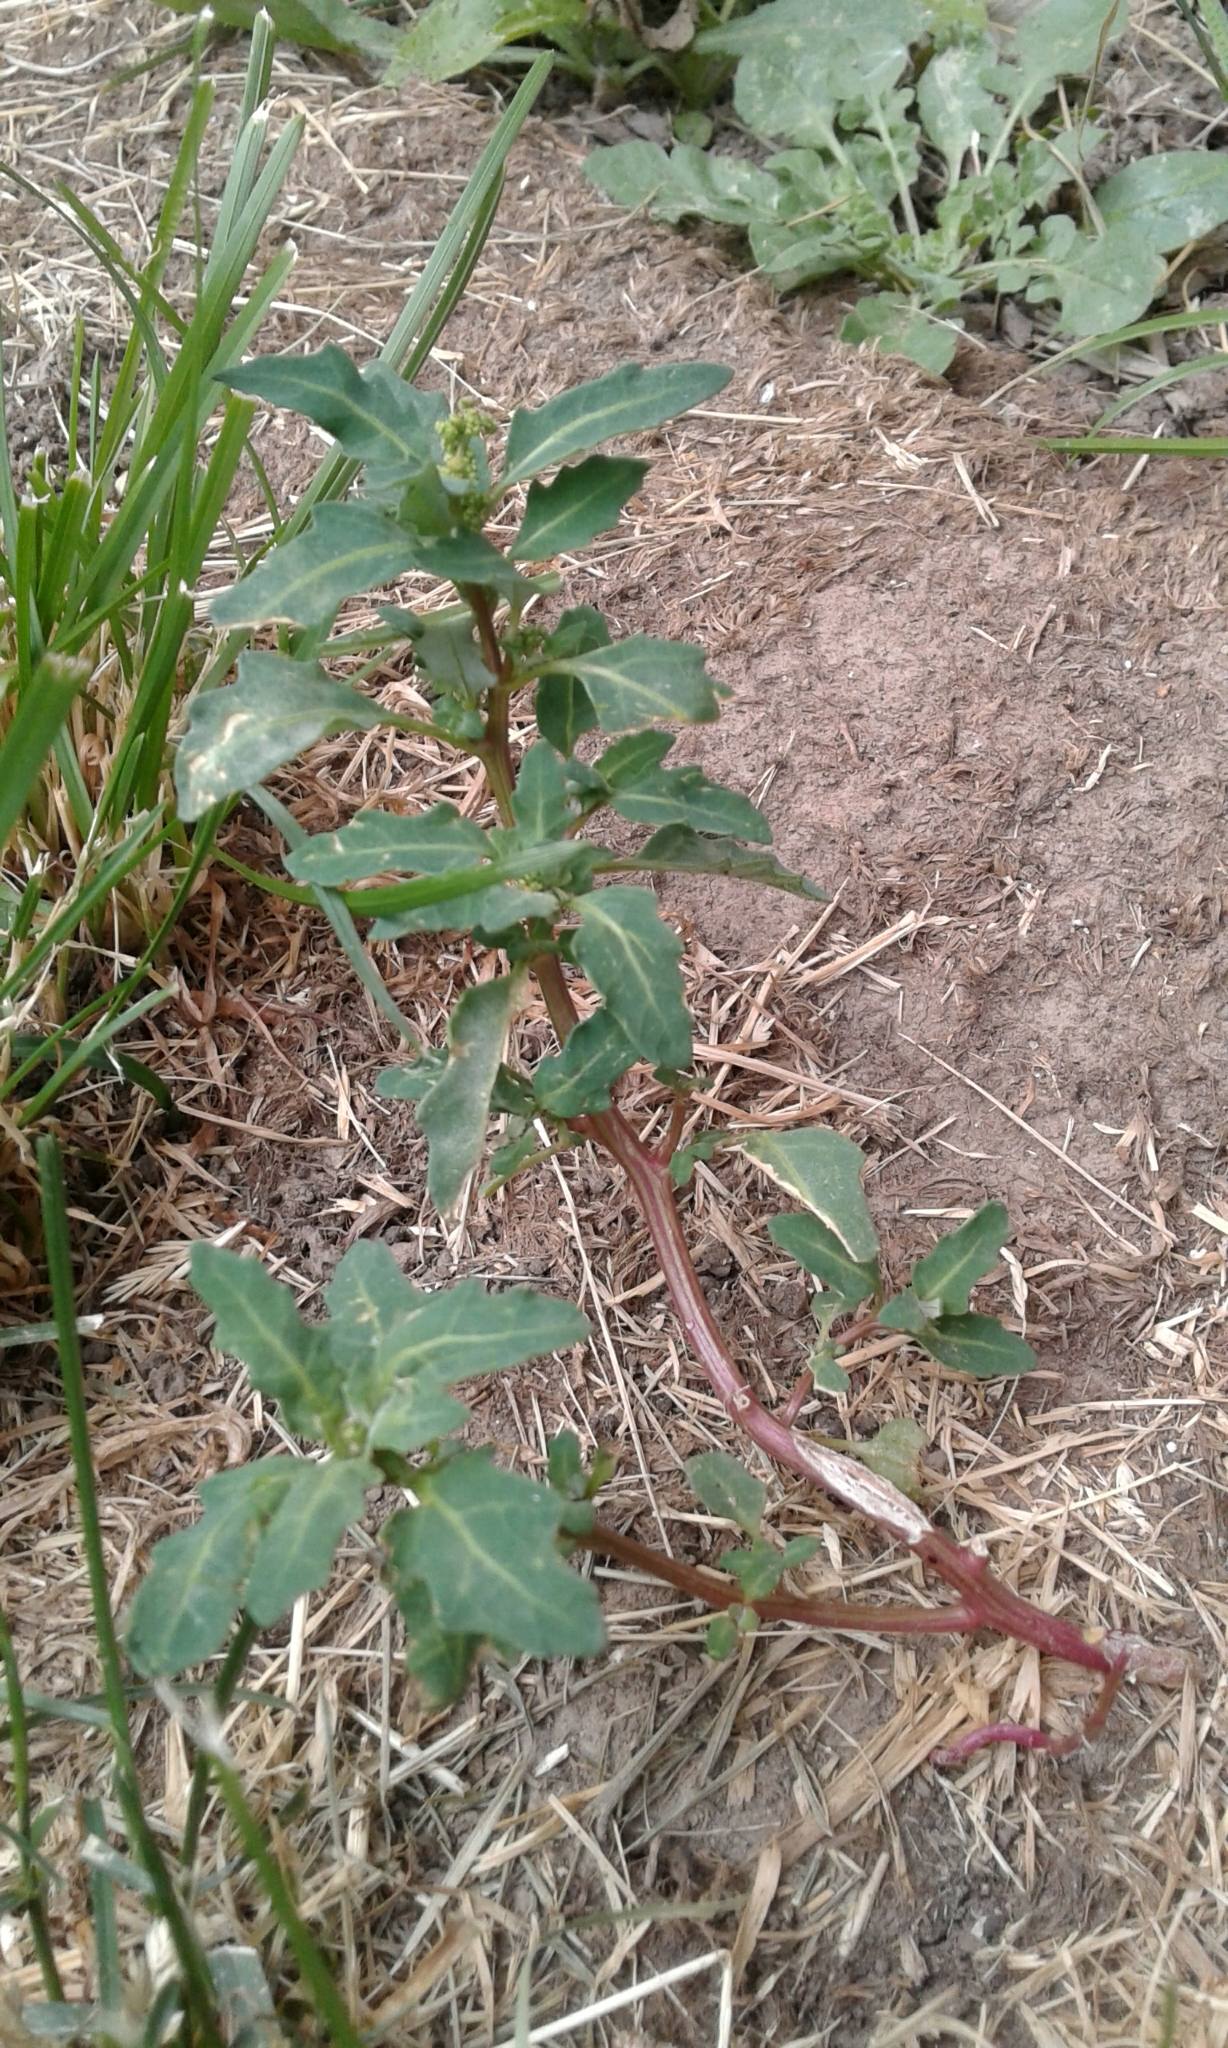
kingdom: Plantae
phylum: Tracheophyta
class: Magnoliopsida
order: Caryophyllales
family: Amaranthaceae
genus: Oxybasis
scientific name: Oxybasis glauca
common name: Glaucous goosefoot
